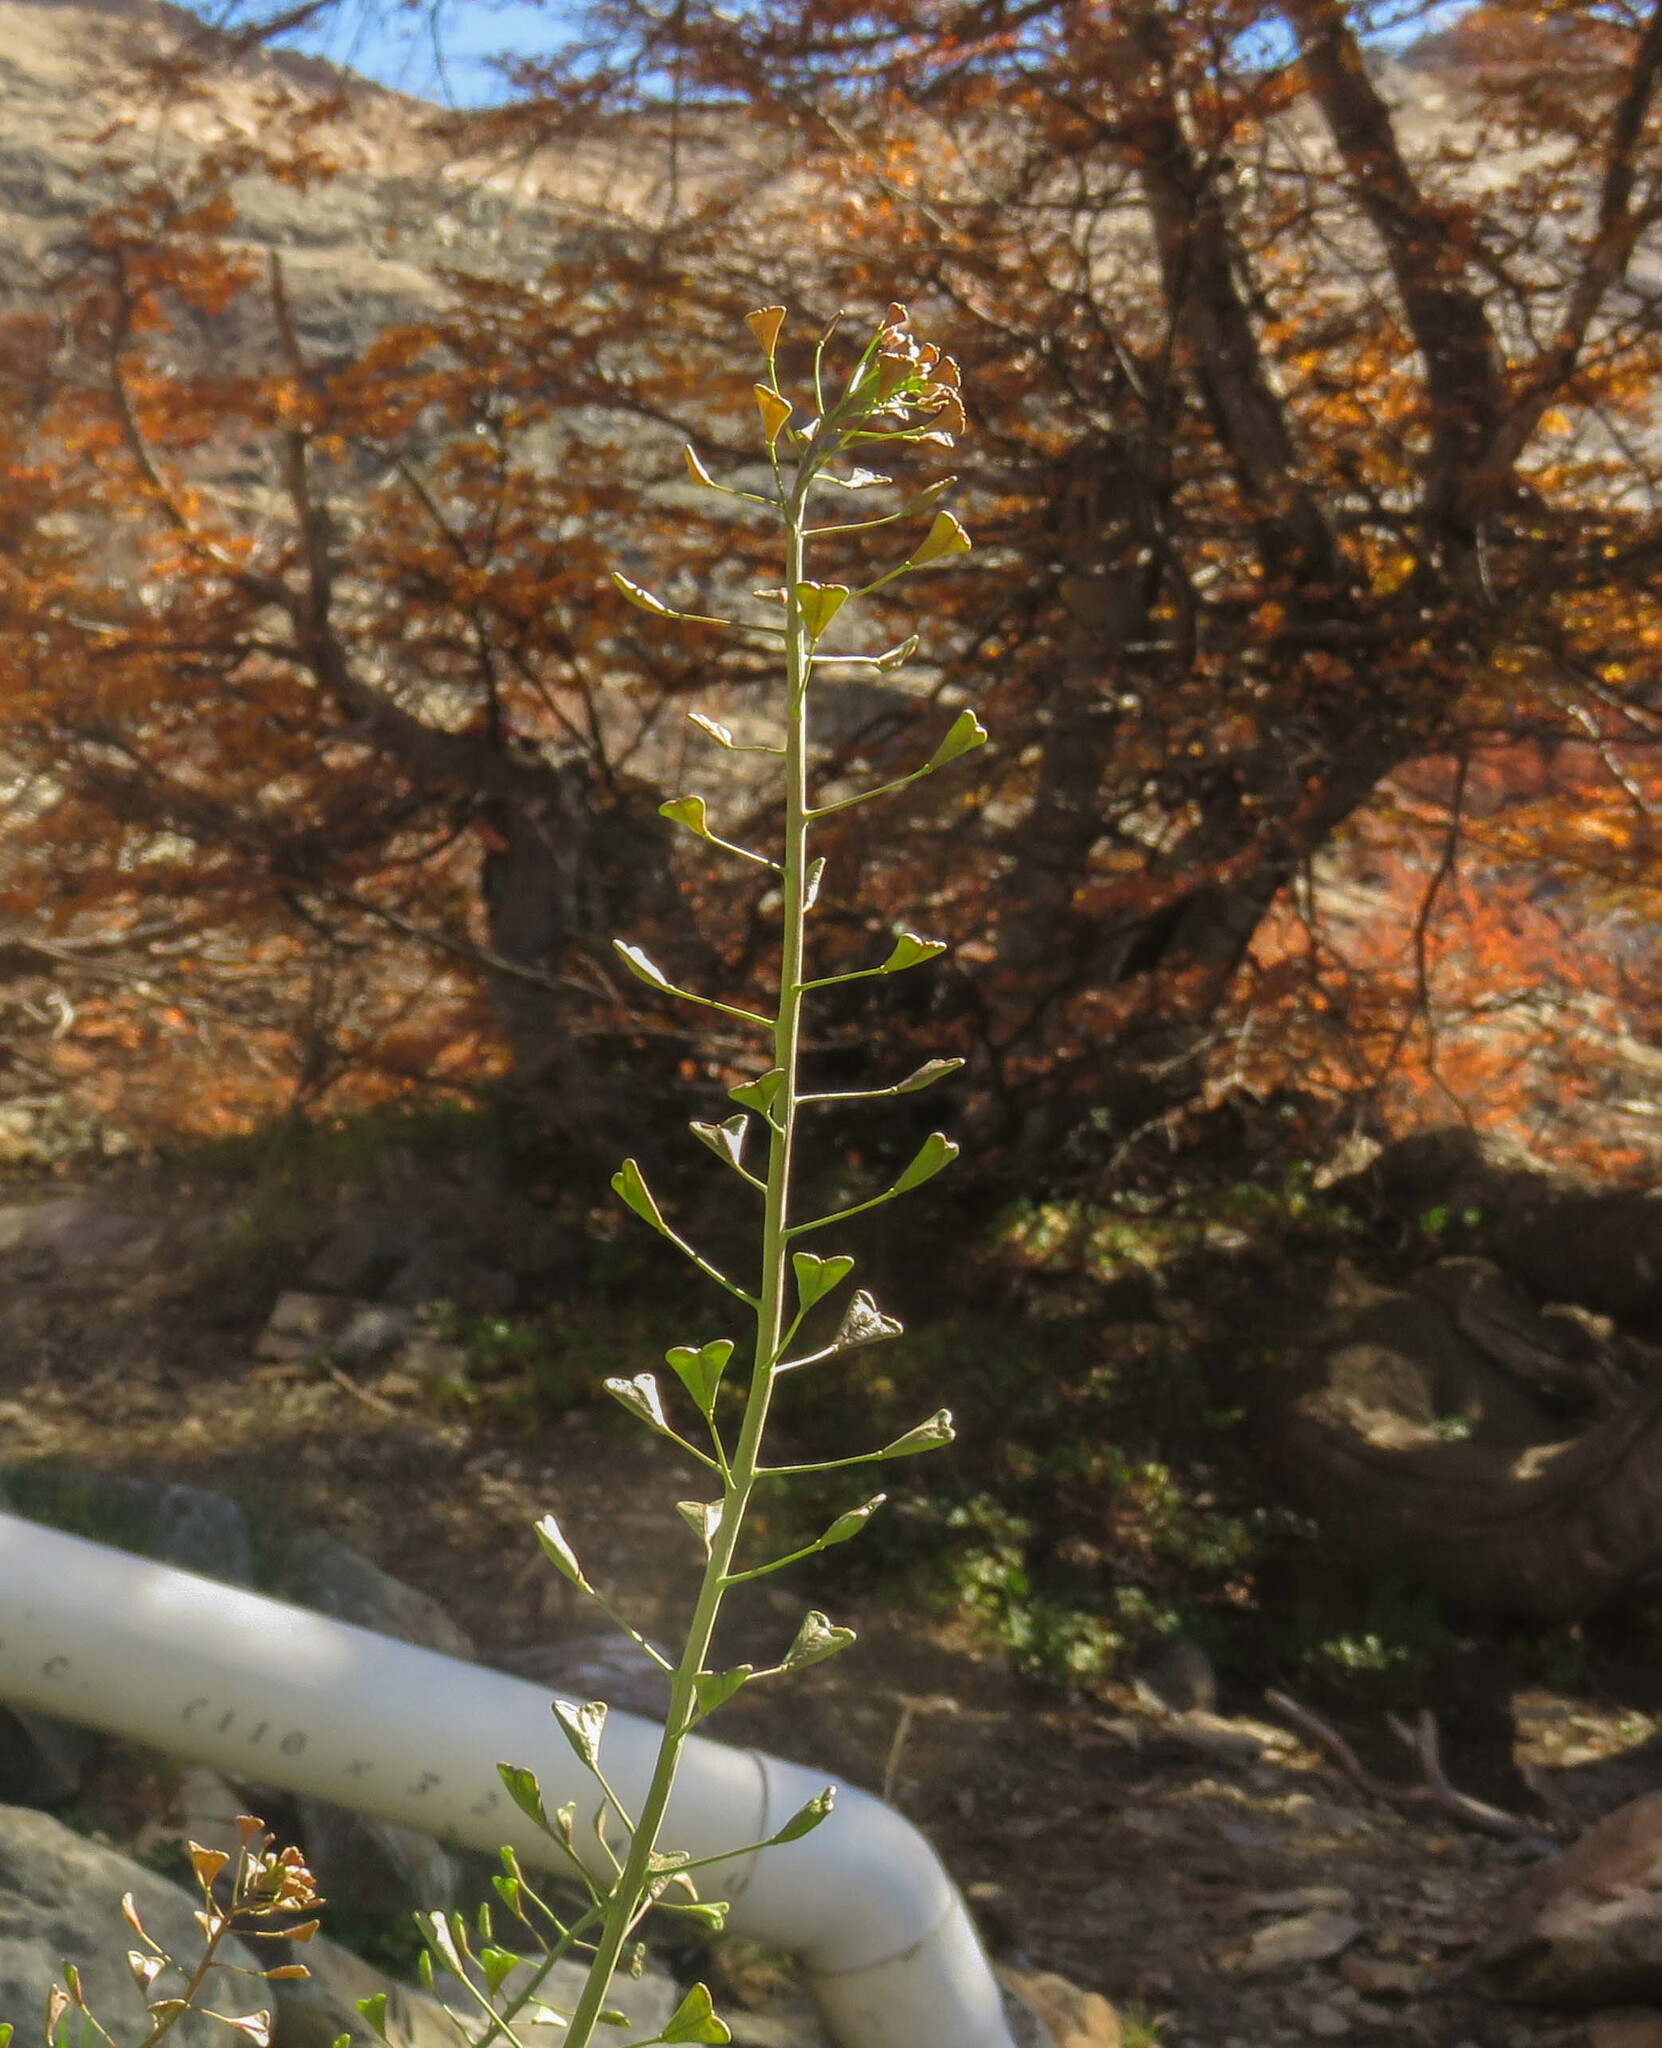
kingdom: Plantae
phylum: Tracheophyta
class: Magnoliopsida
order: Brassicales
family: Brassicaceae
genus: Capsella
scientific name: Capsella bursa-pastoris
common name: Shepherd's purse
